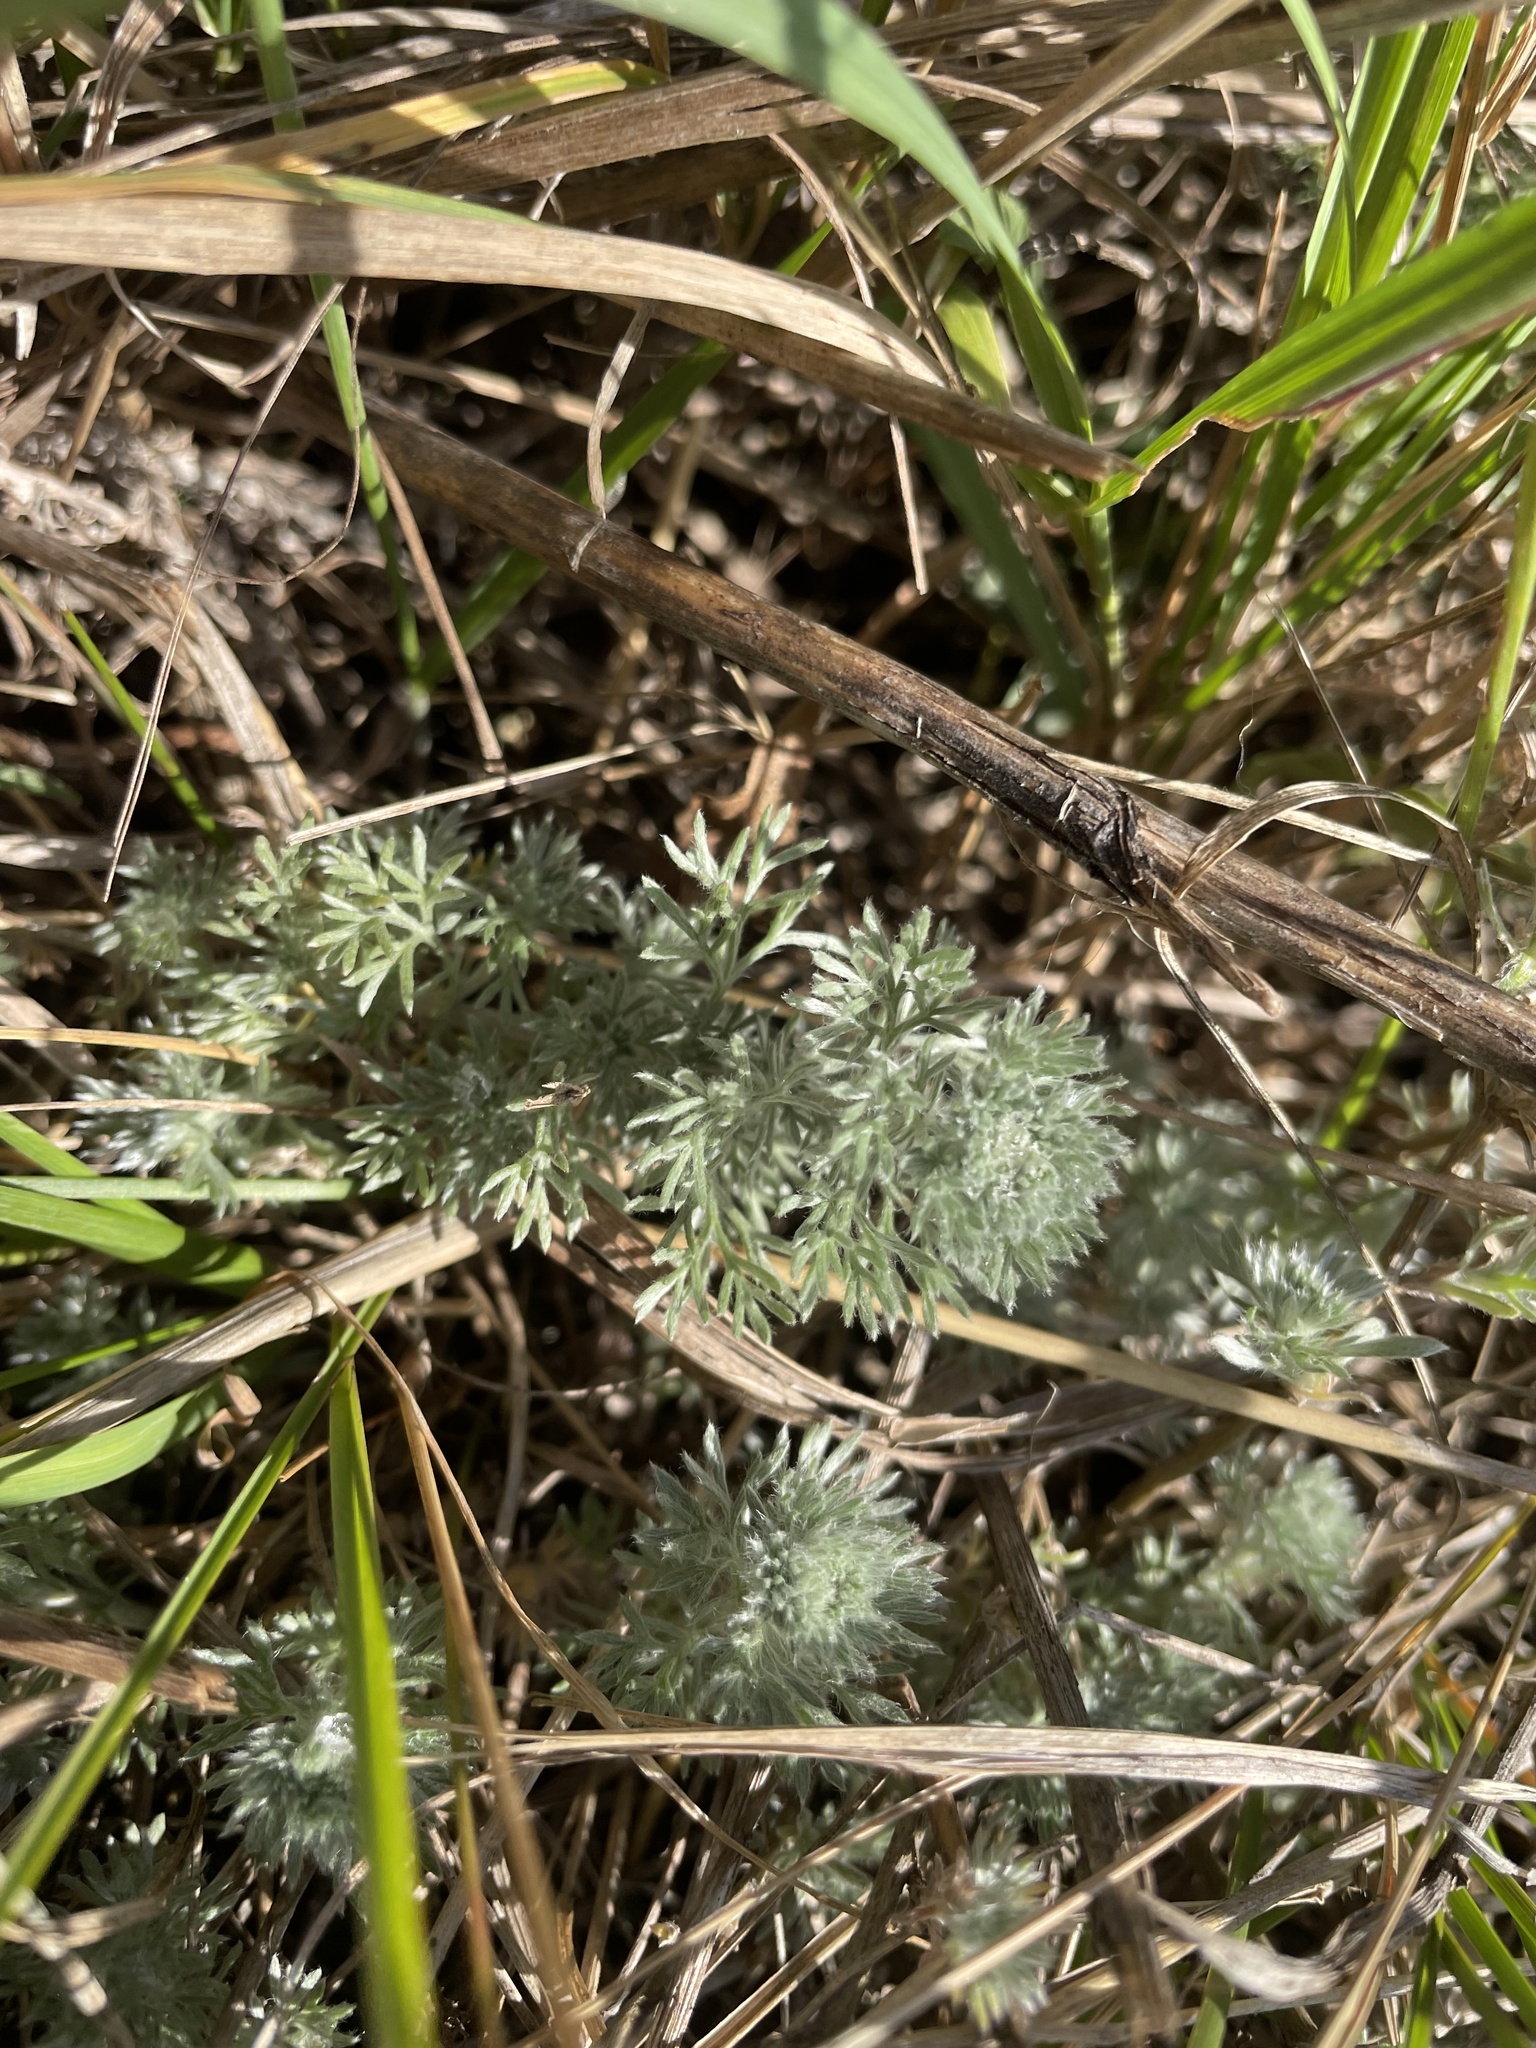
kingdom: Plantae
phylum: Tracheophyta
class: Magnoliopsida
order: Asterales
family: Asteraceae
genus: Artemisia
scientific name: Artemisia frigida
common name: Prairie sagewort
